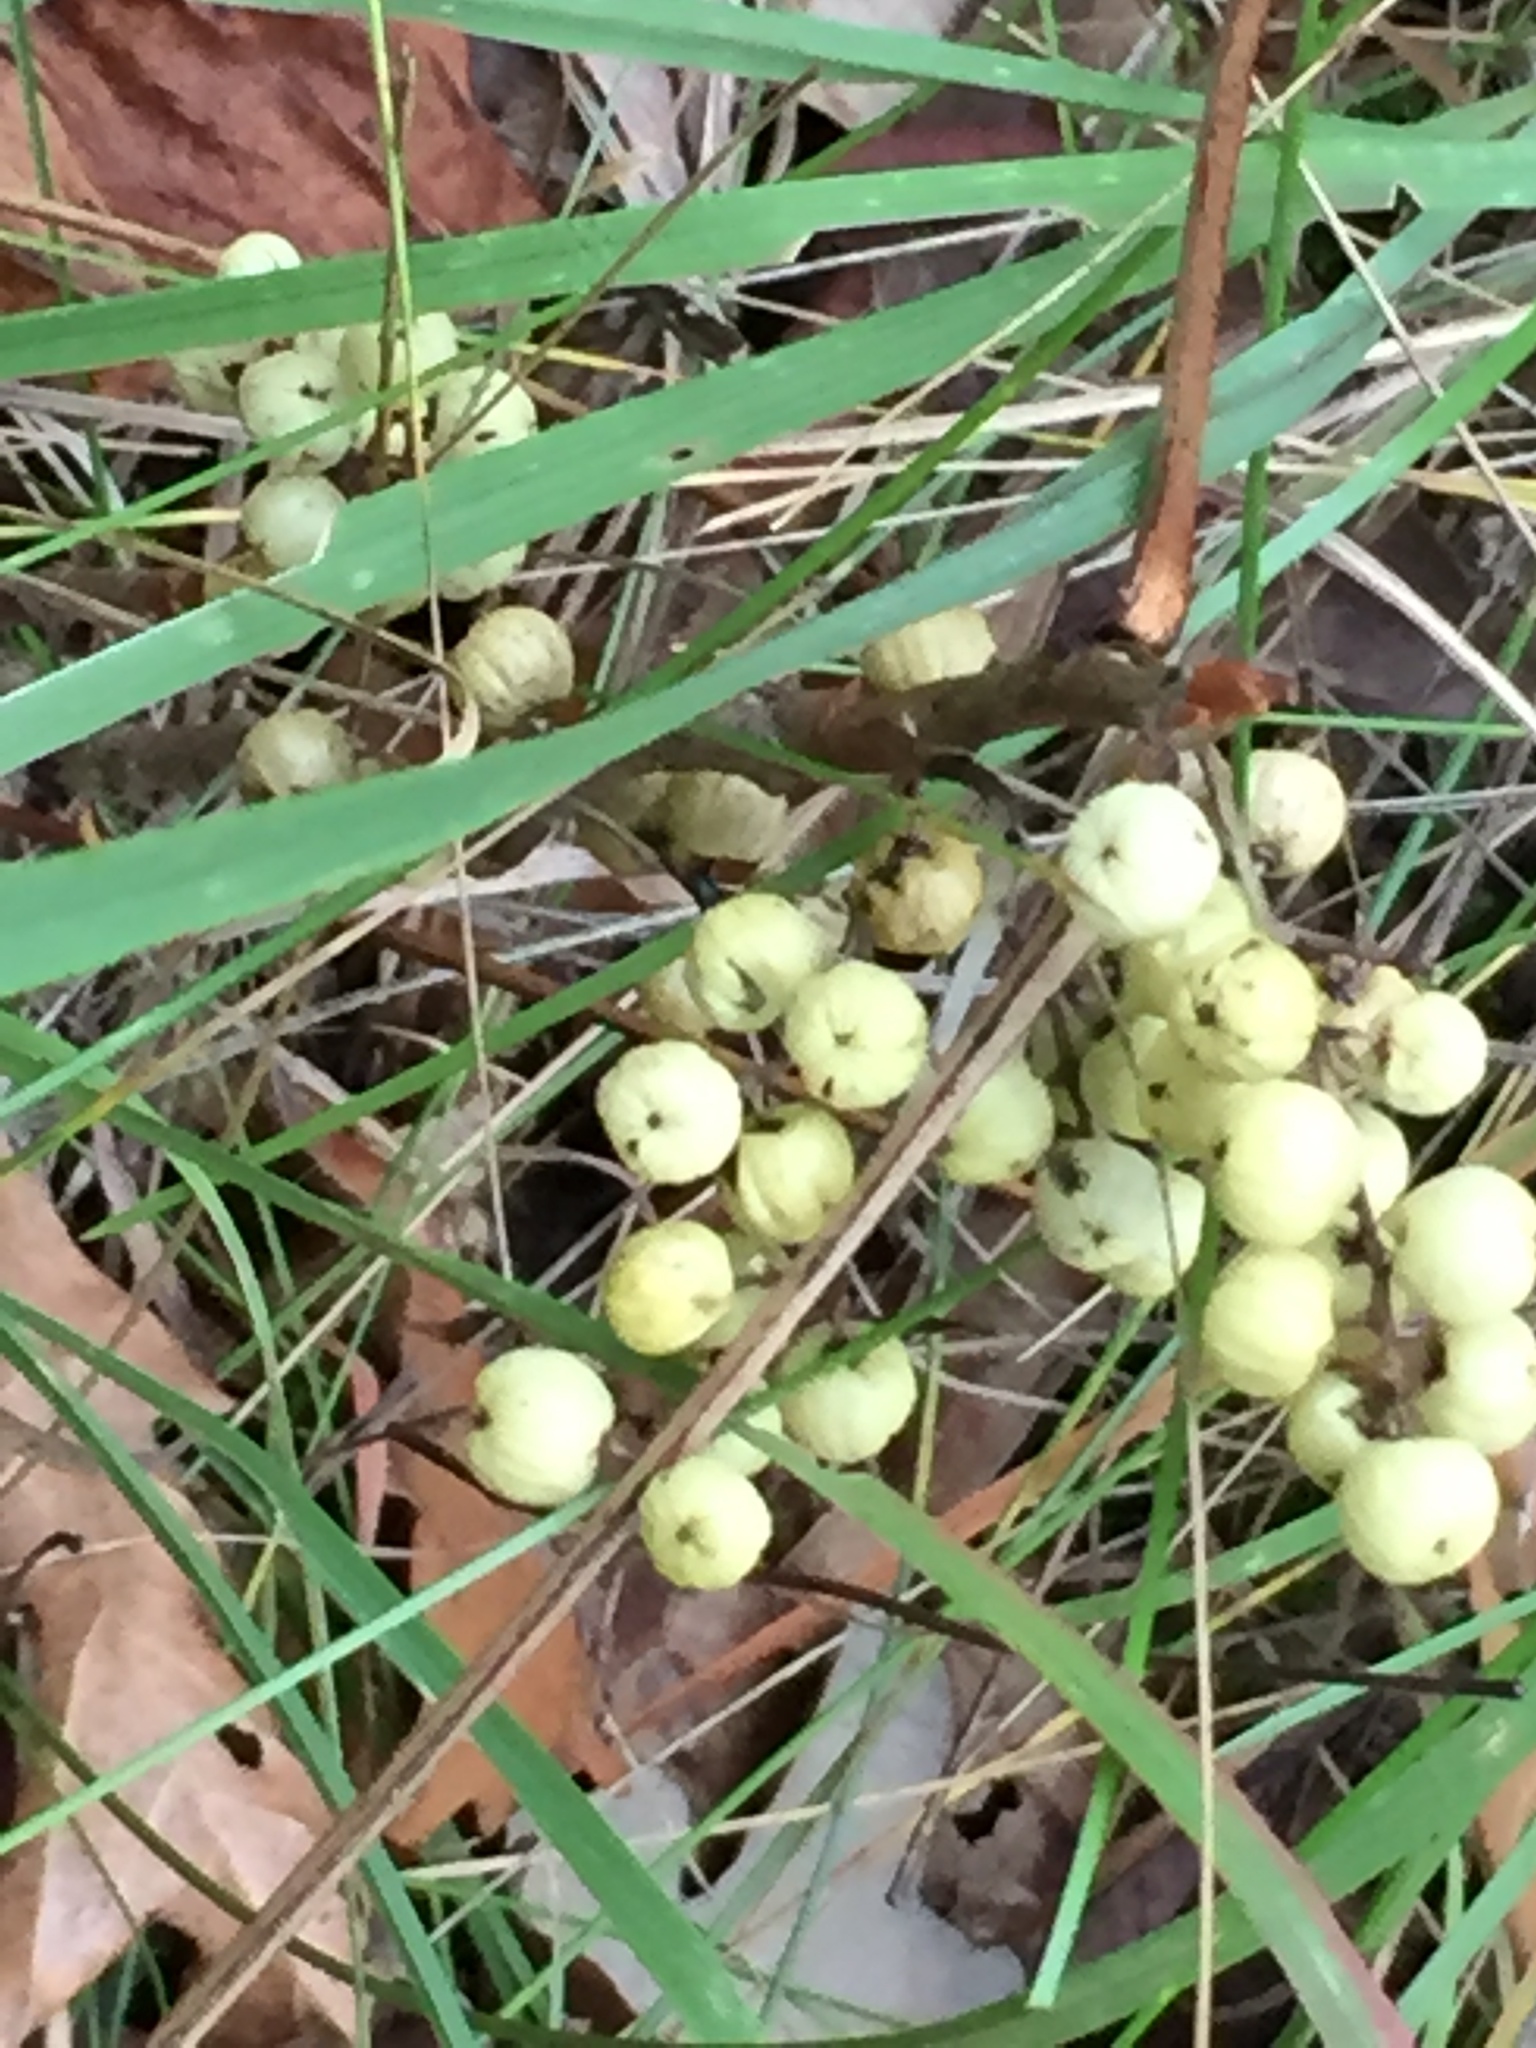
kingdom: Plantae
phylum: Tracheophyta
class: Magnoliopsida
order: Sapindales
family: Anacardiaceae
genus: Toxicodendron
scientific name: Toxicodendron rydbergii
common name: Rydberg's poison-ivy
